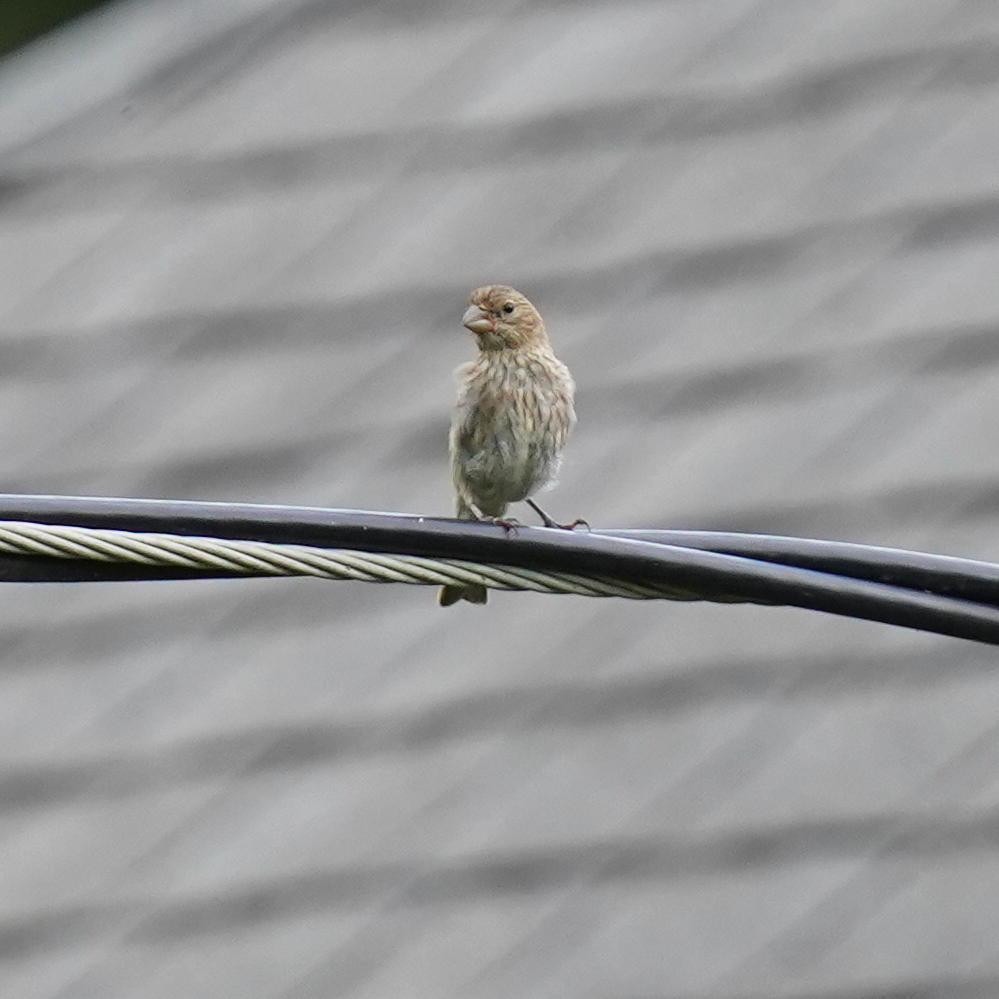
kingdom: Animalia
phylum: Chordata
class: Aves
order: Passeriformes
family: Fringillidae
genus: Haemorhous
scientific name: Haemorhous mexicanus
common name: House finch
